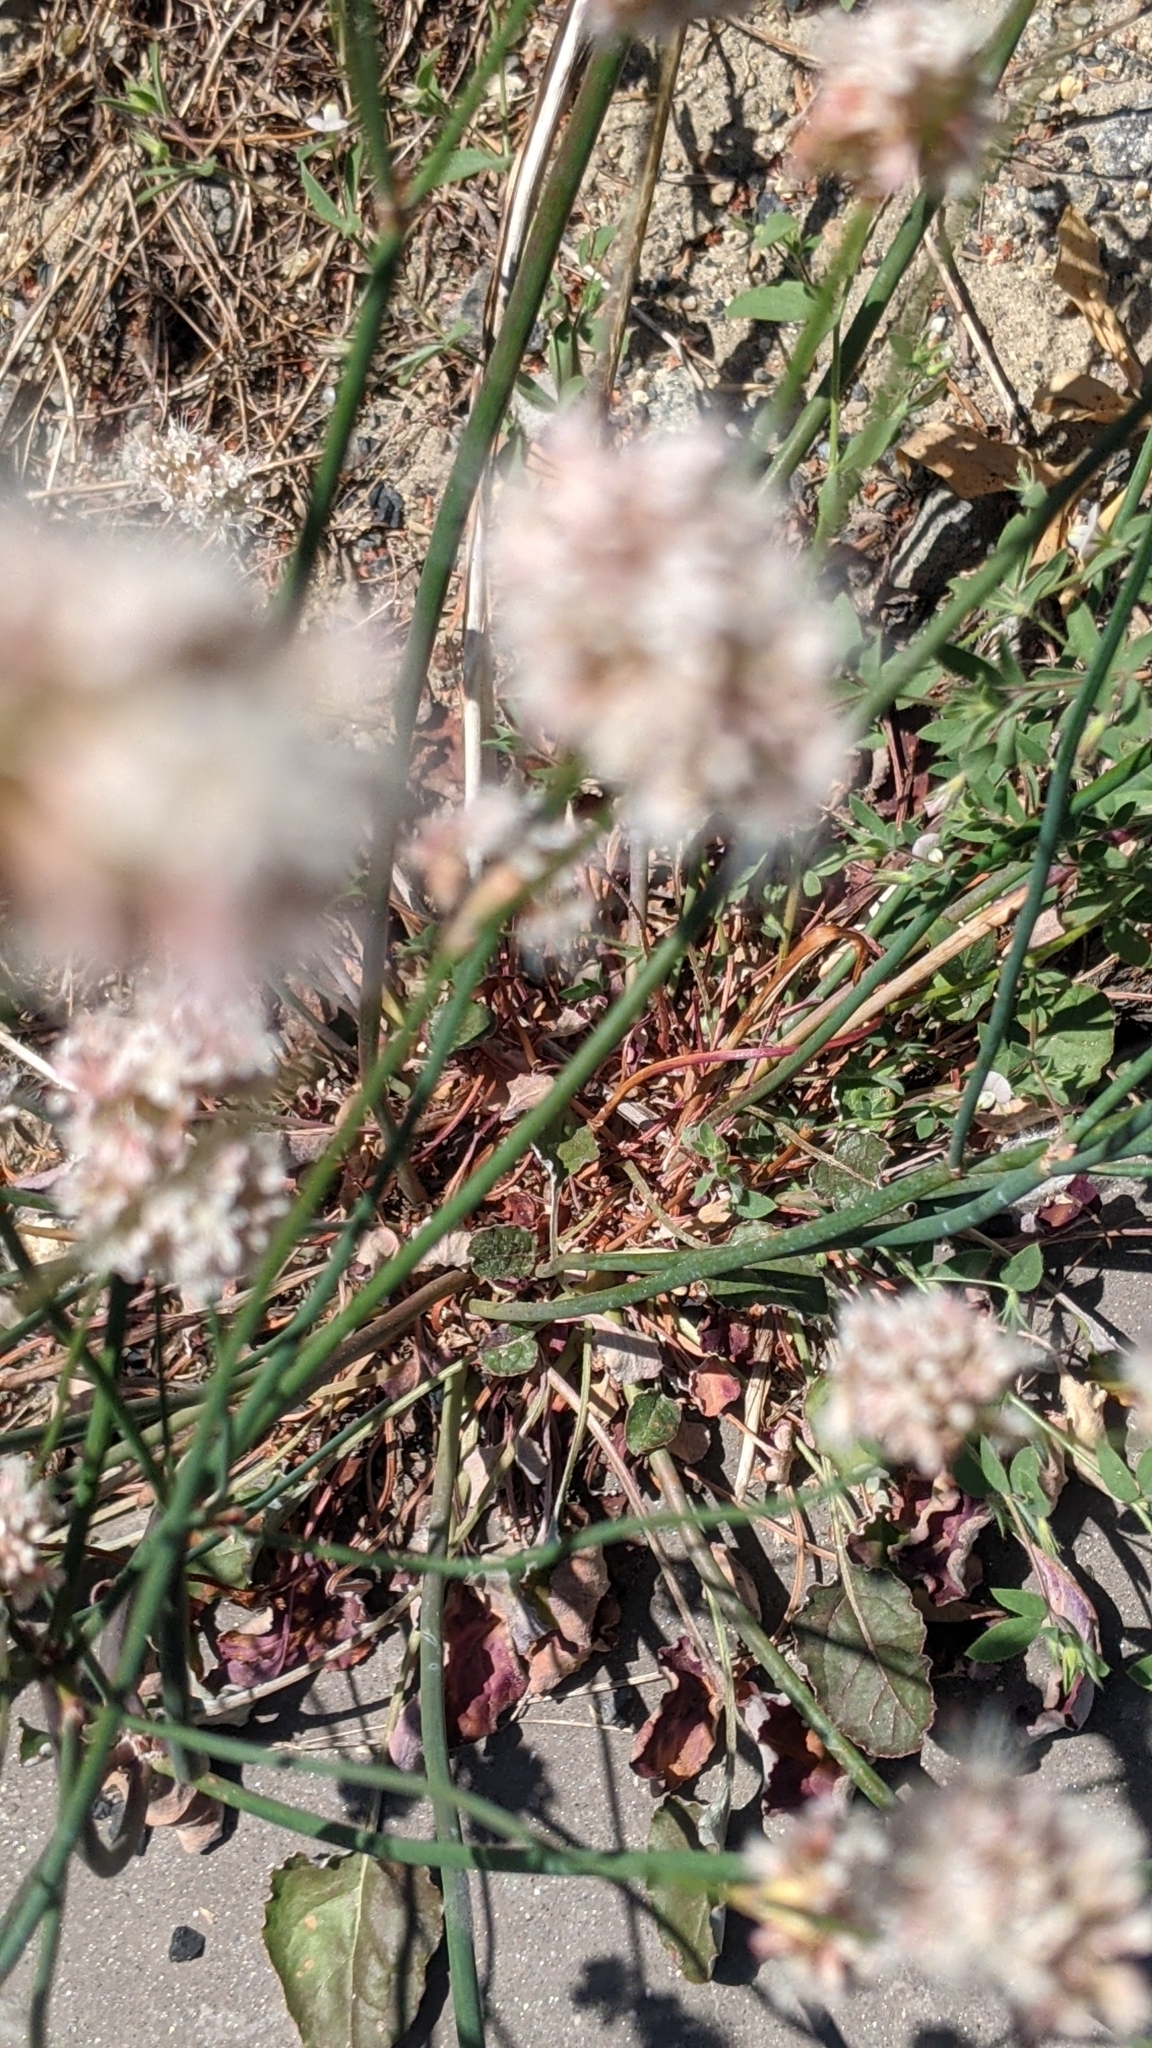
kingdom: Plantae
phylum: Tracheophyta
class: Magnoliopsida
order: Caryophyllales
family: Polygonaceae
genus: Eriogonum
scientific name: Eriogonum nudum
